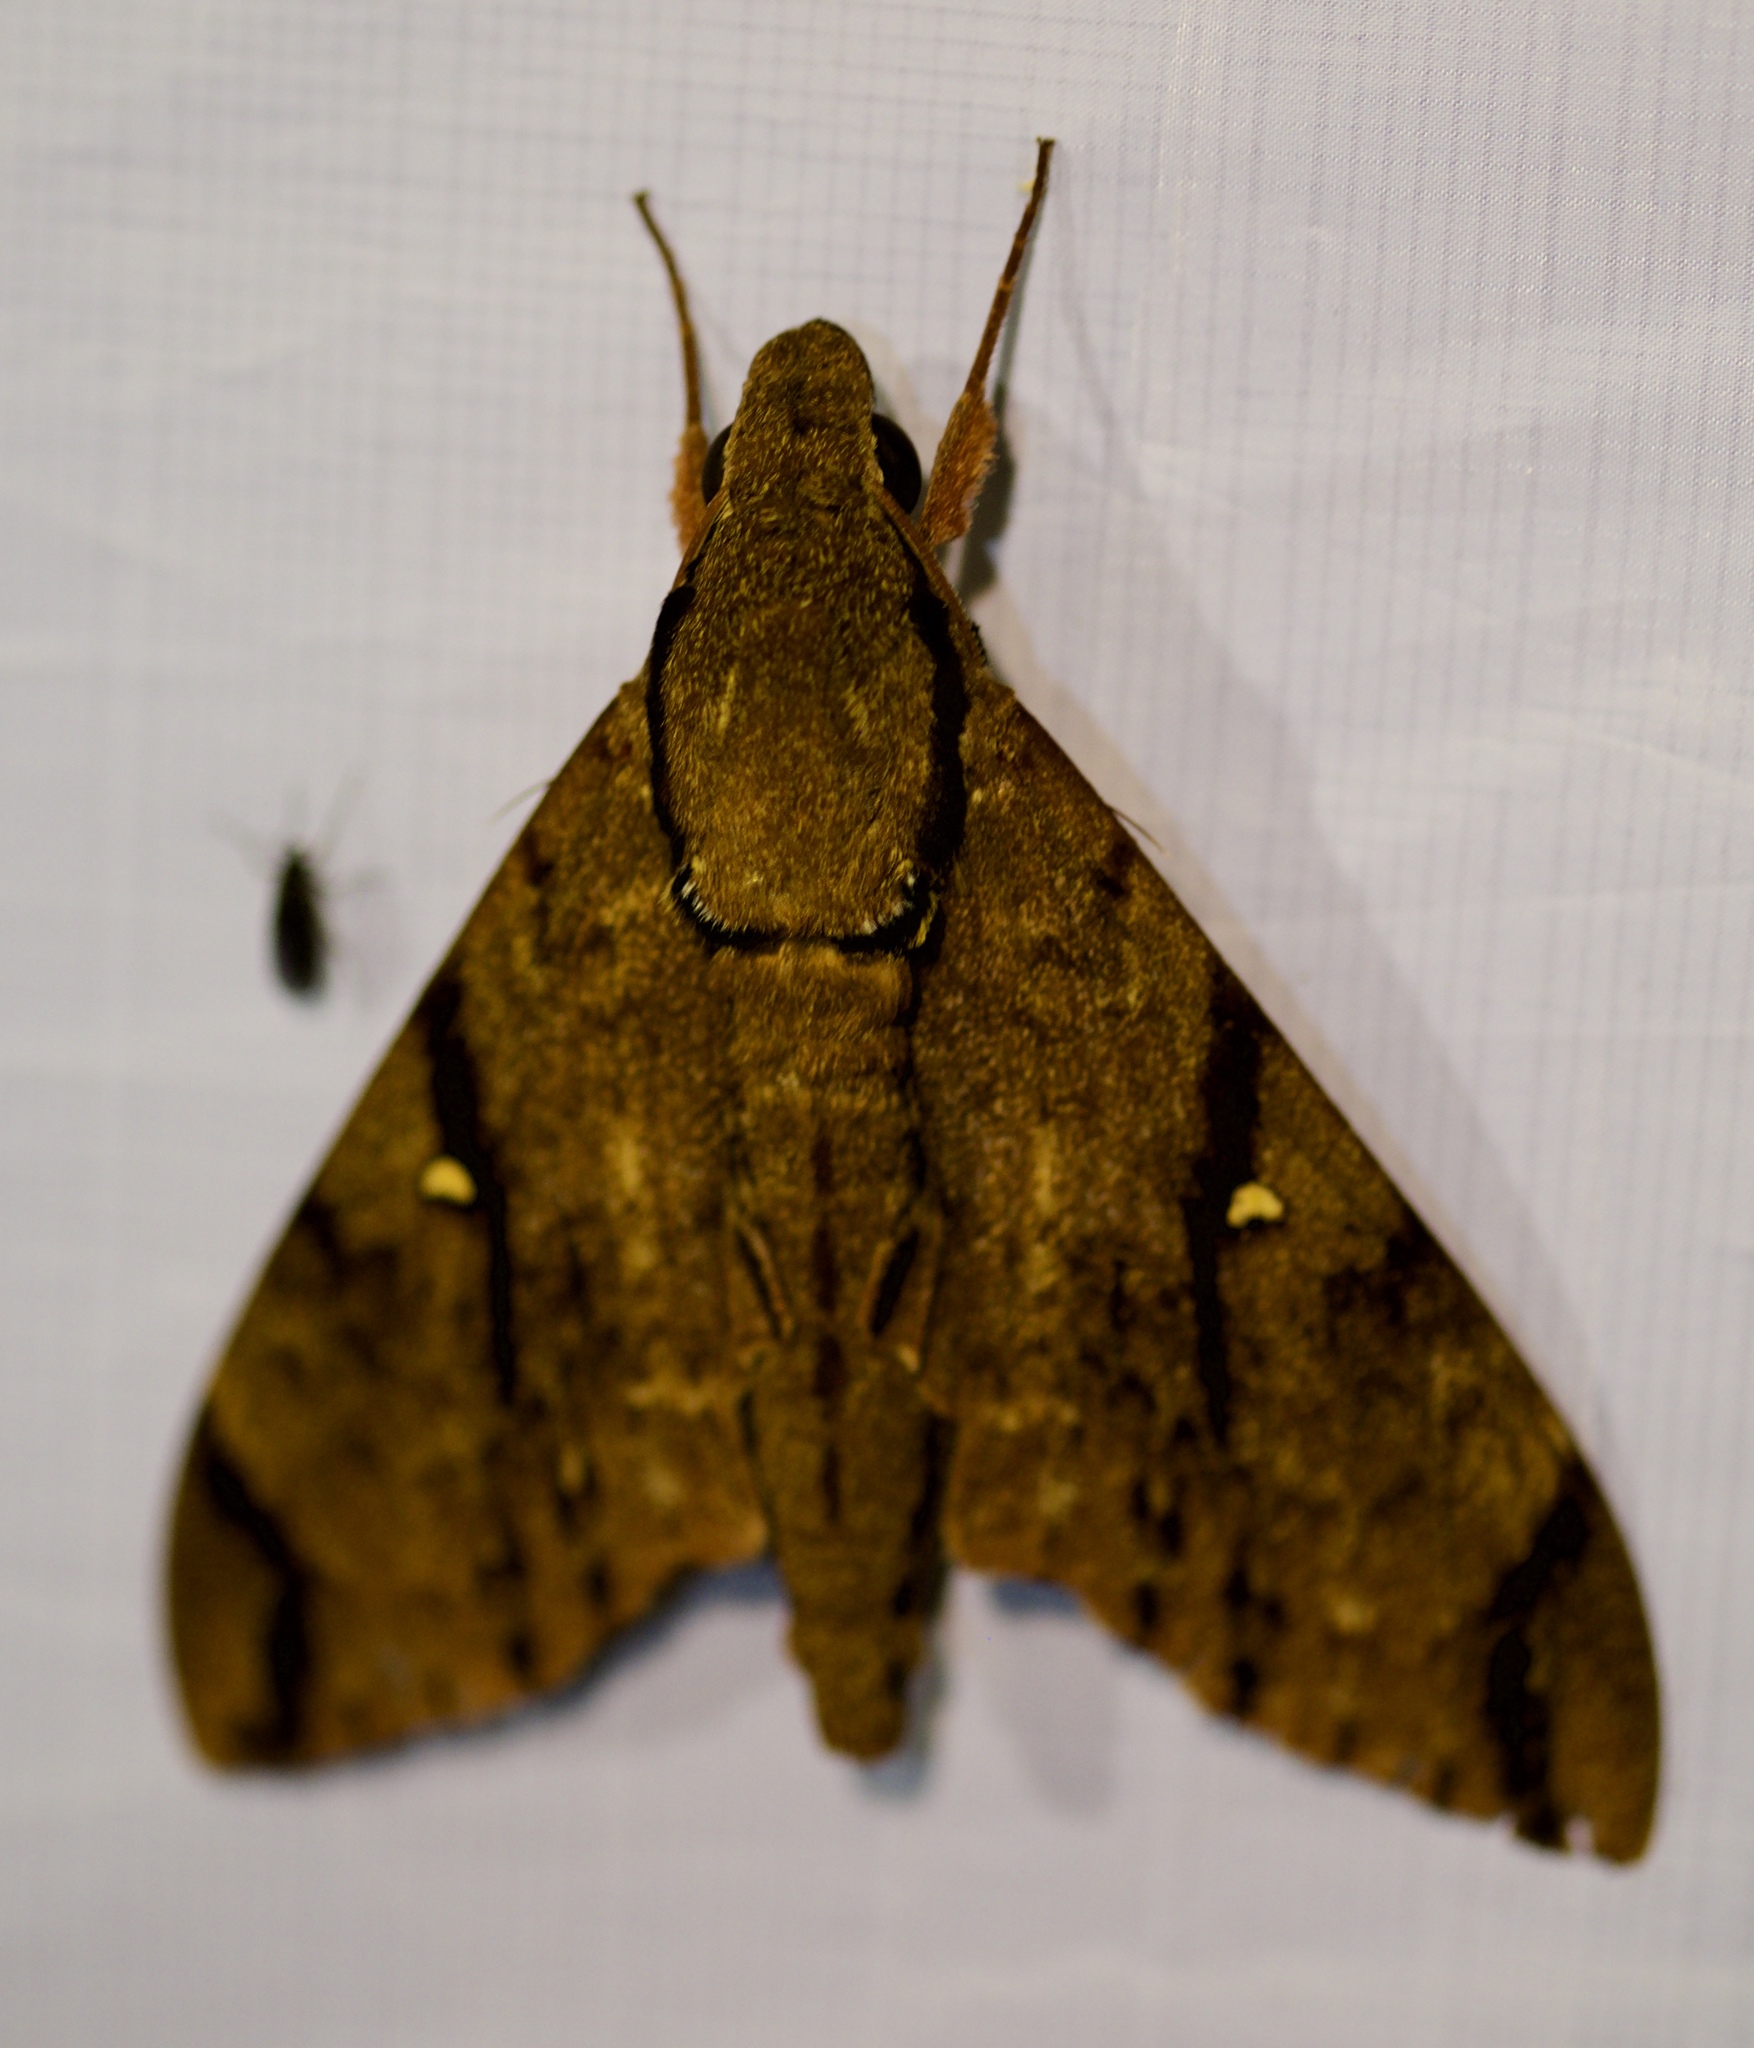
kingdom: Animalia
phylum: Arthropoda
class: Insecta
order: Lepidoptera
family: Sphingidae
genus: Cerberonoton
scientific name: Cerberonoton rubescens
